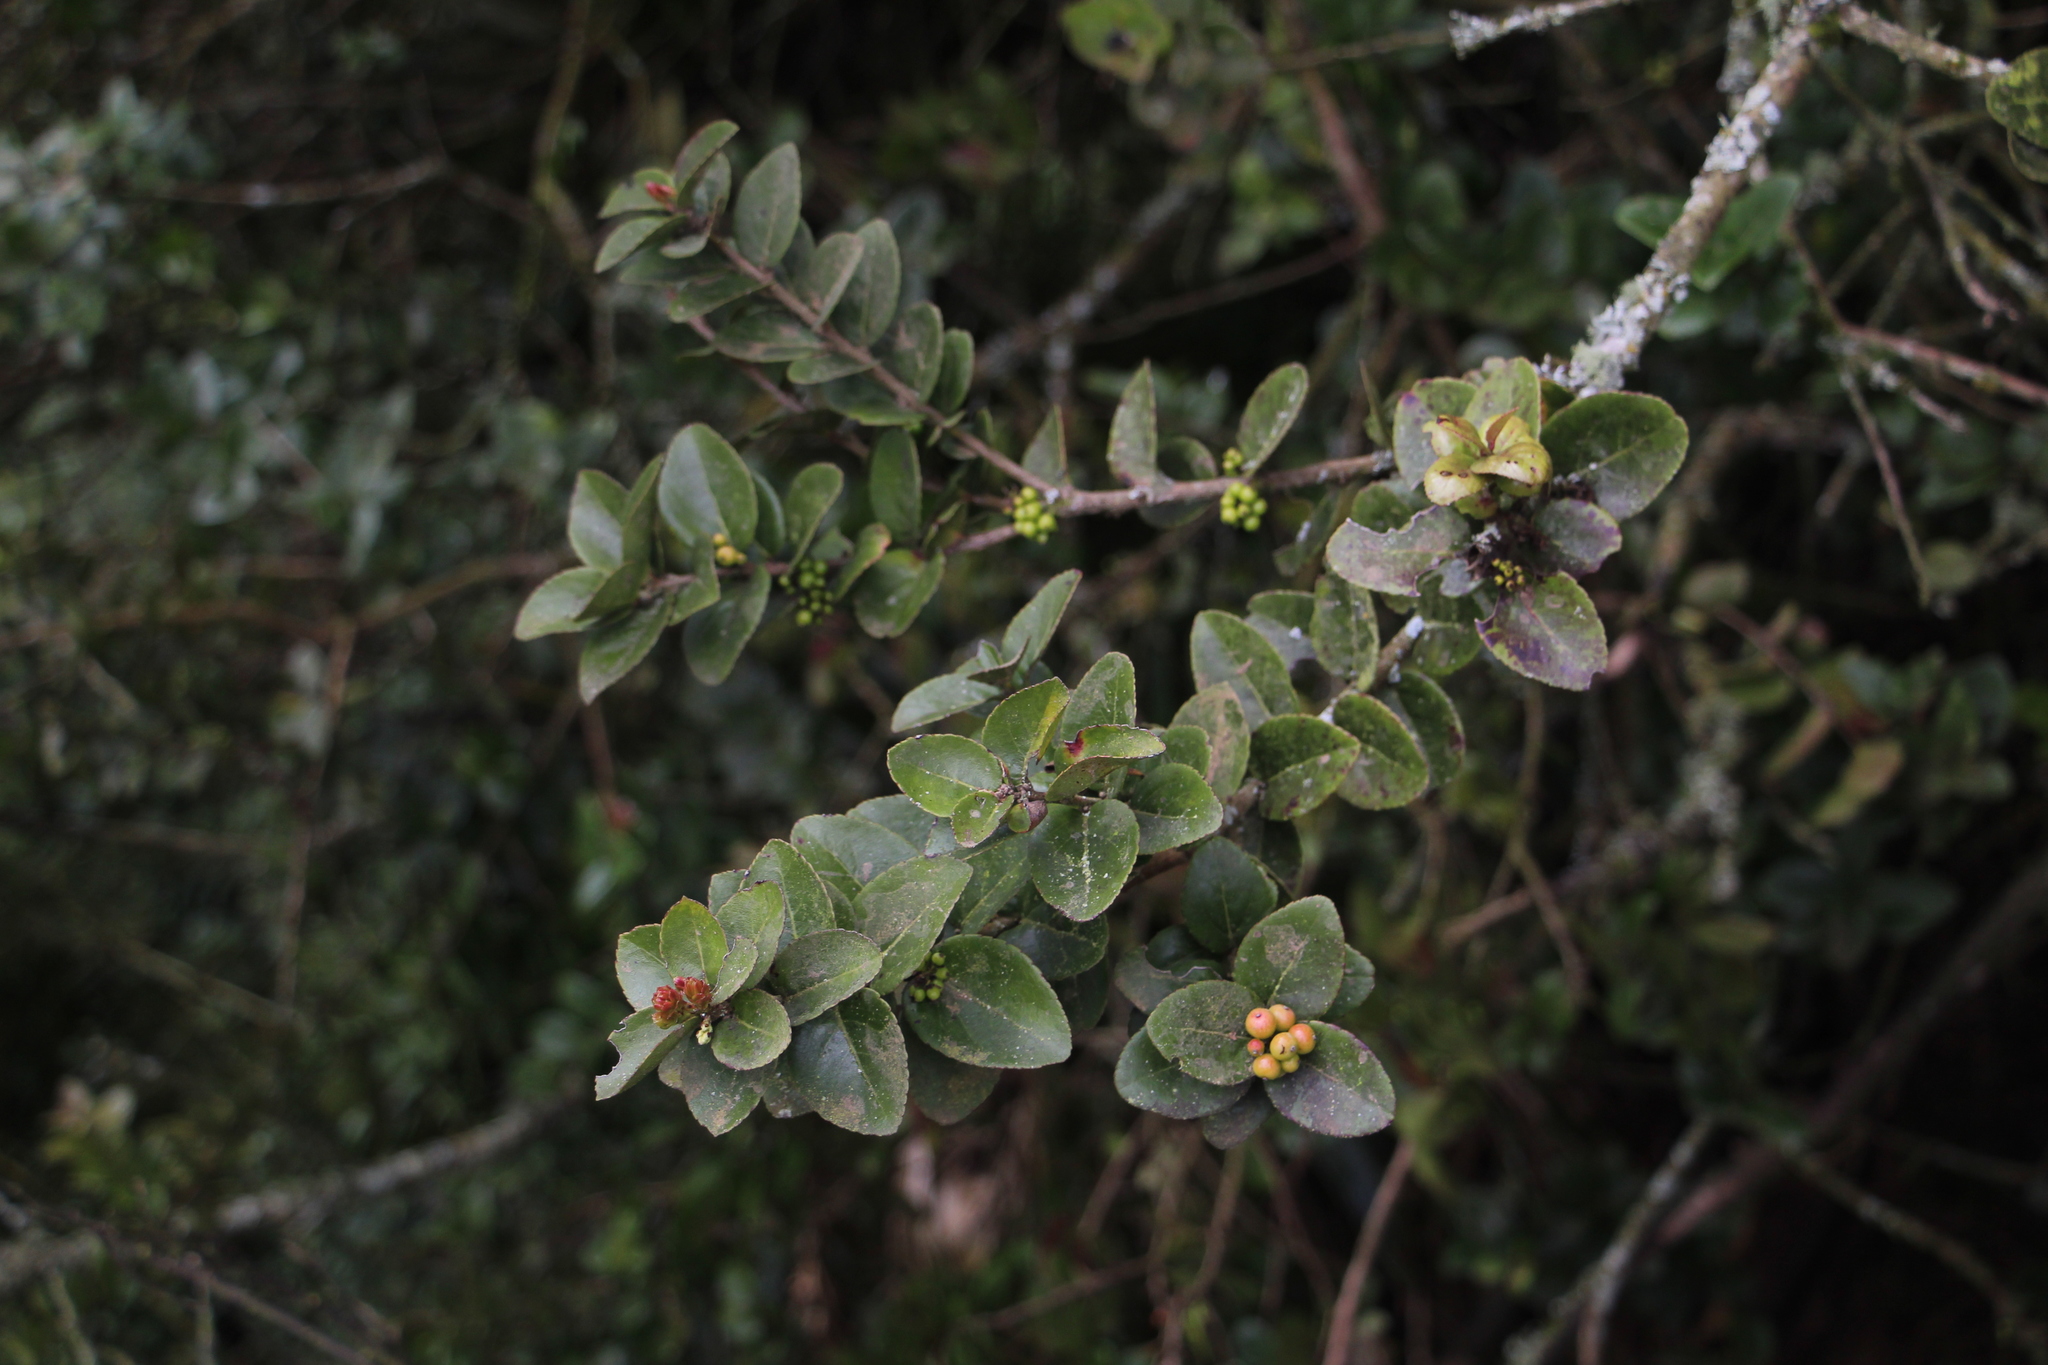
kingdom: Plantae
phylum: Tracheophyta
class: Magnoliopsida
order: Malpighiales
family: Salicaceae
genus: Xylosma
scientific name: Xylosma spiculifera
